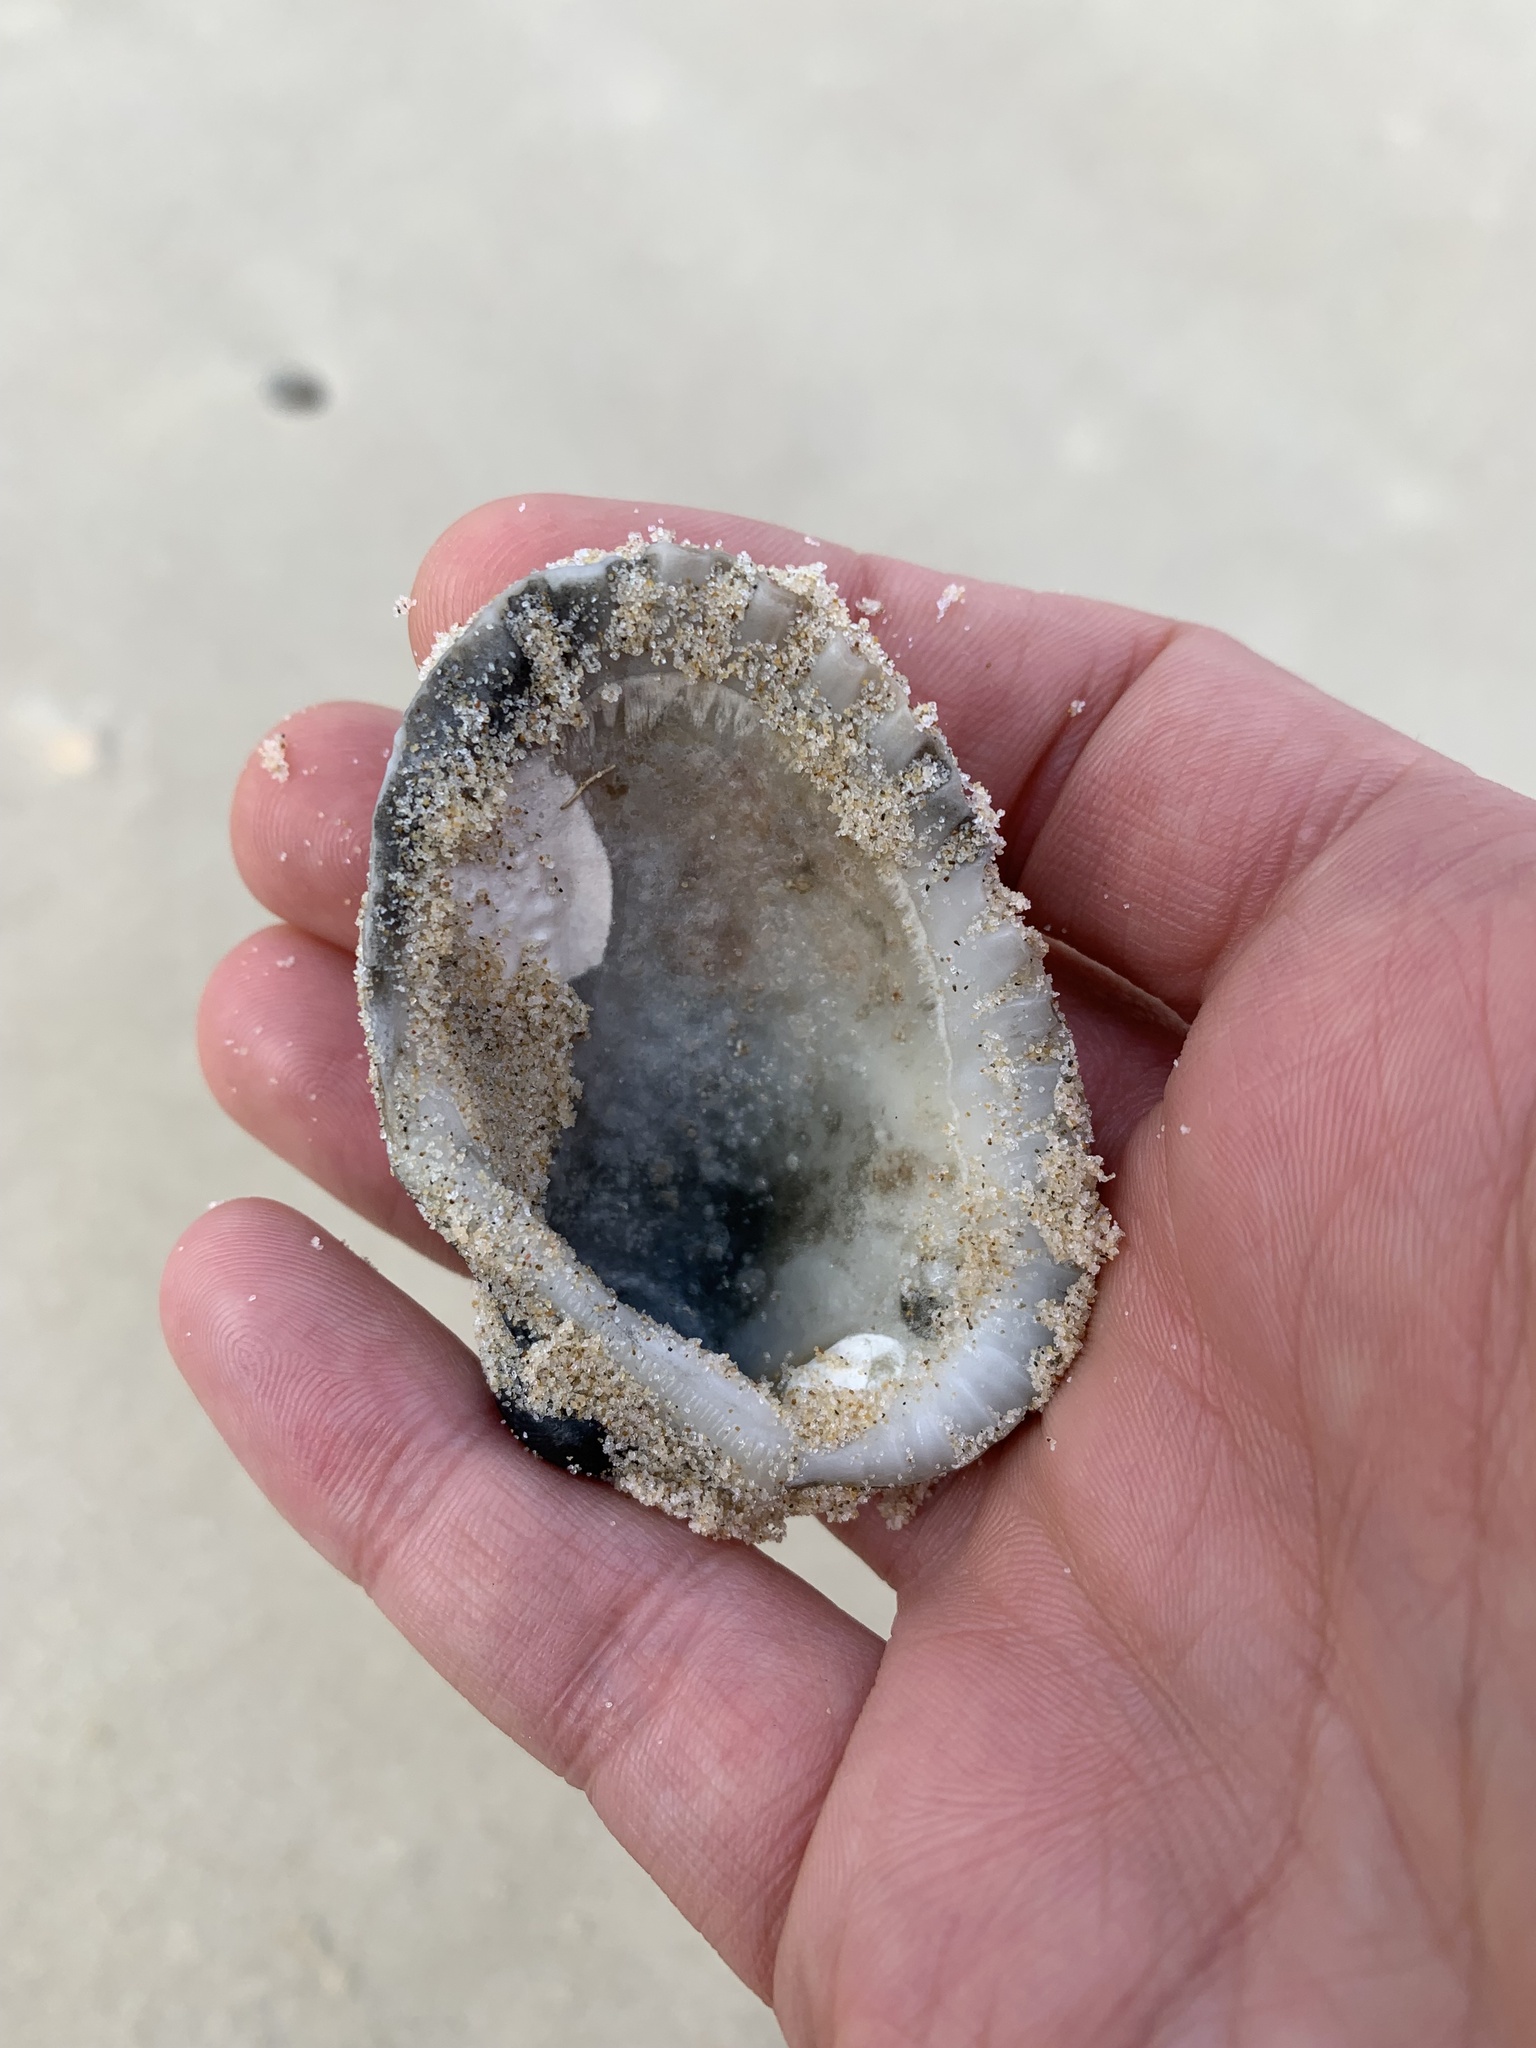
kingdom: Animalia
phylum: Mollusca
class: Bivalvia
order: Arcida
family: Arcidae
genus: Anadara
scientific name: Anadara trapezia
